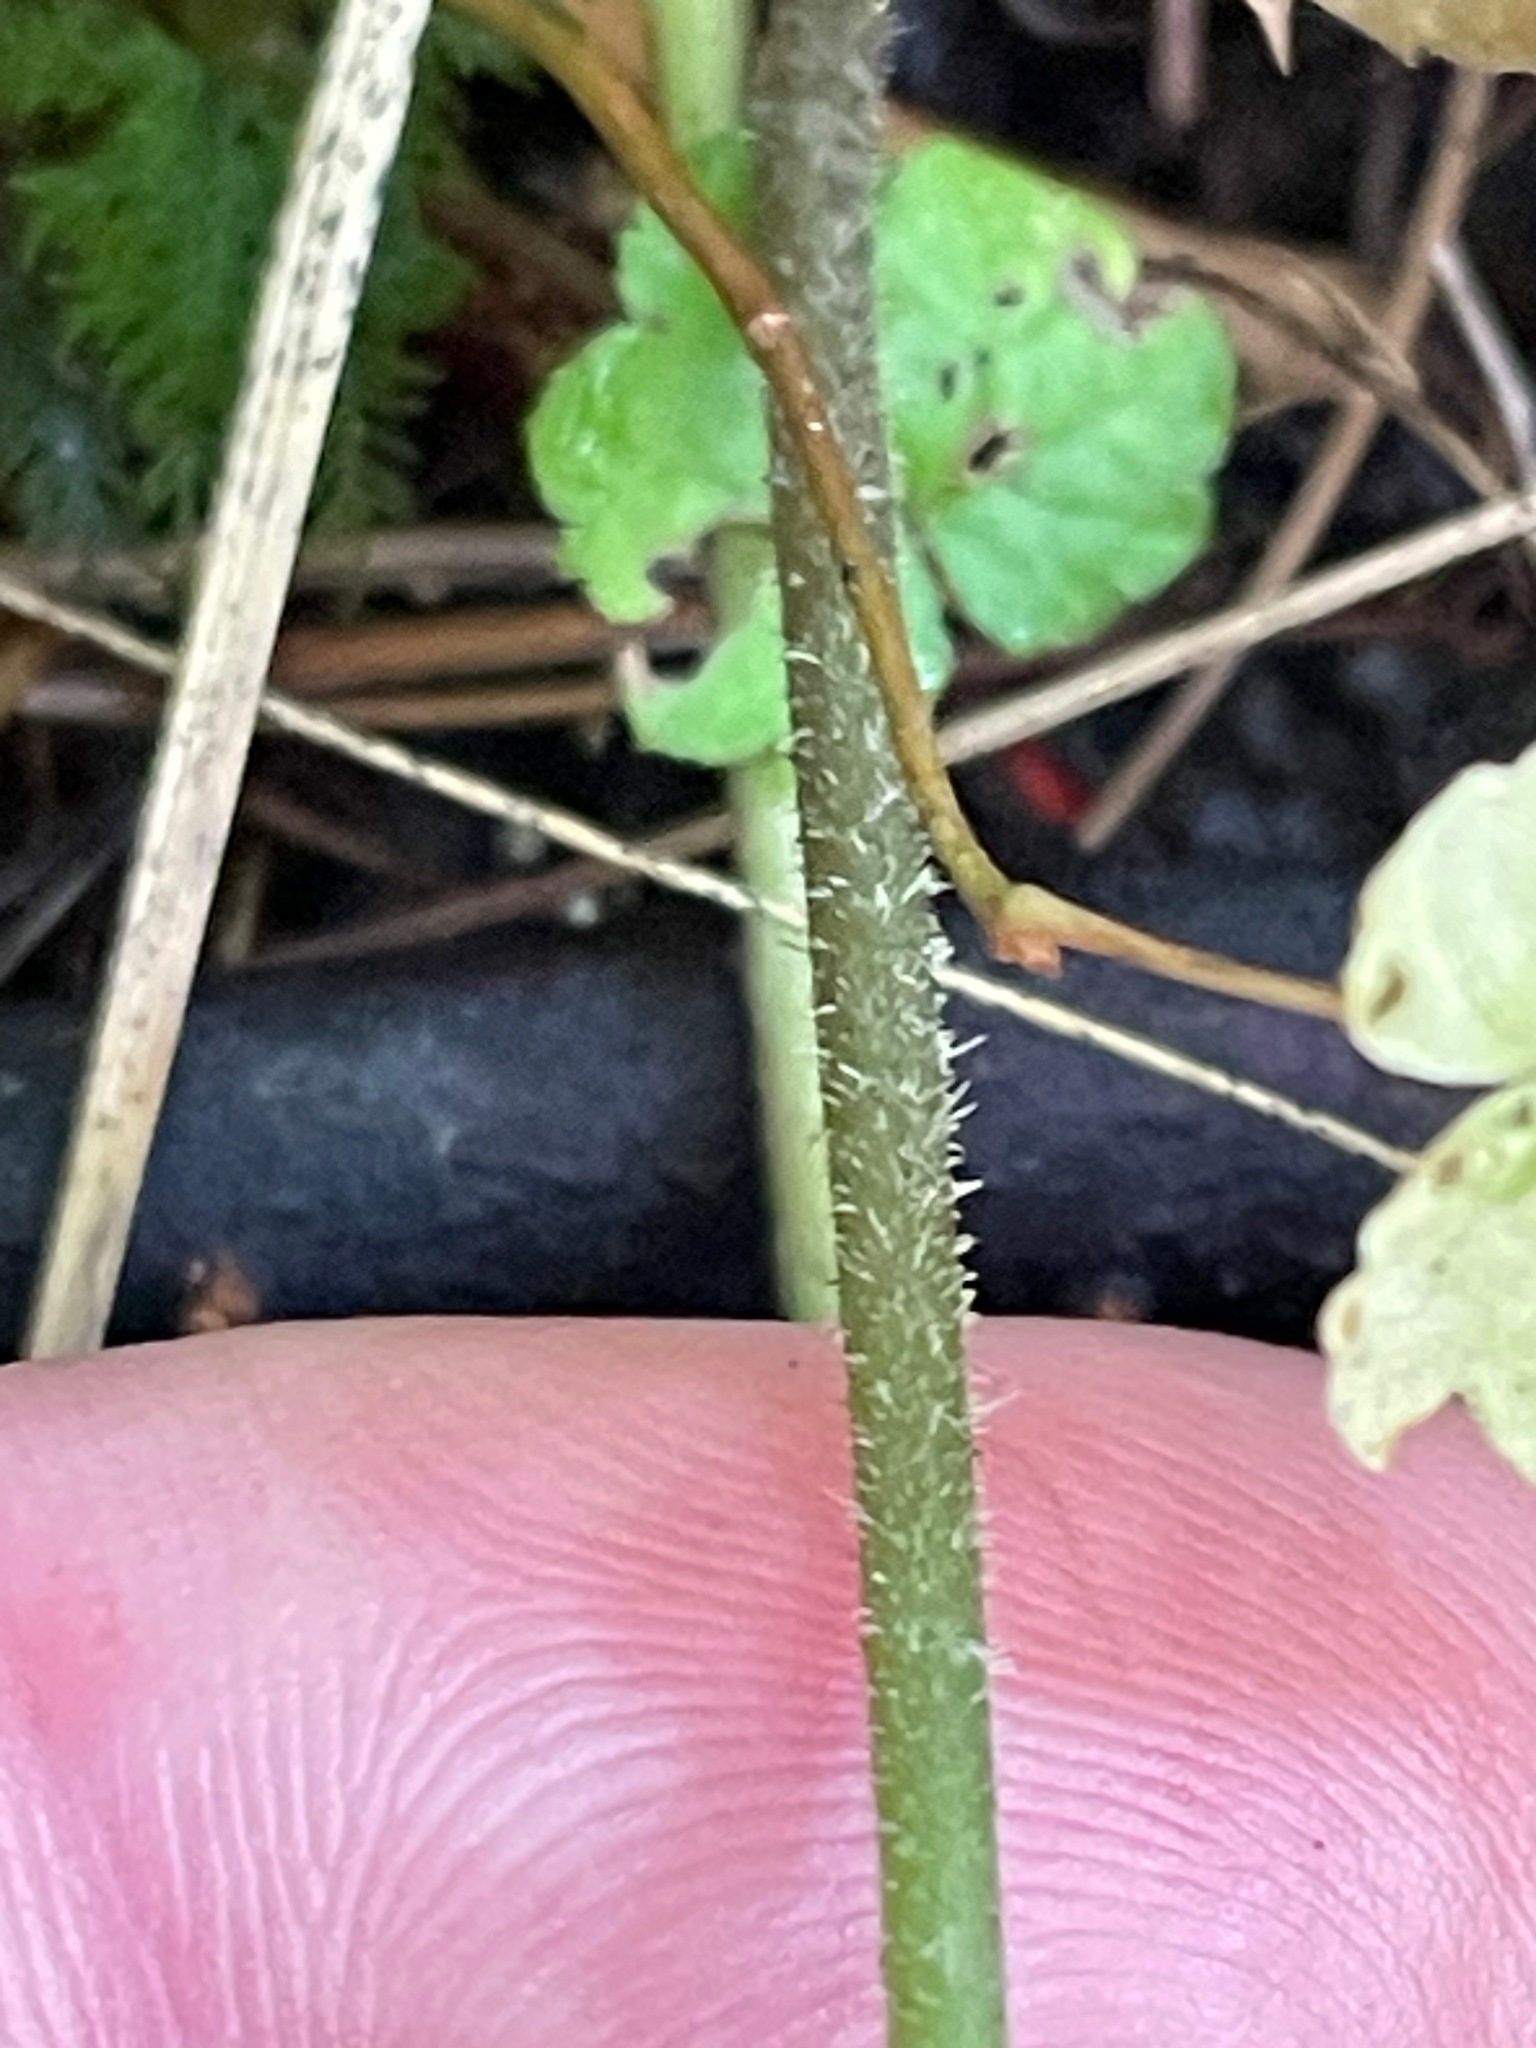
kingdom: Plantae
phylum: Tracheophyta
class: Magnoliopsida
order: Saxifragales
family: Saxifragaceae
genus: Tiarella
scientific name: Tiarella stolonifera
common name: Stoloniferous foamflower
